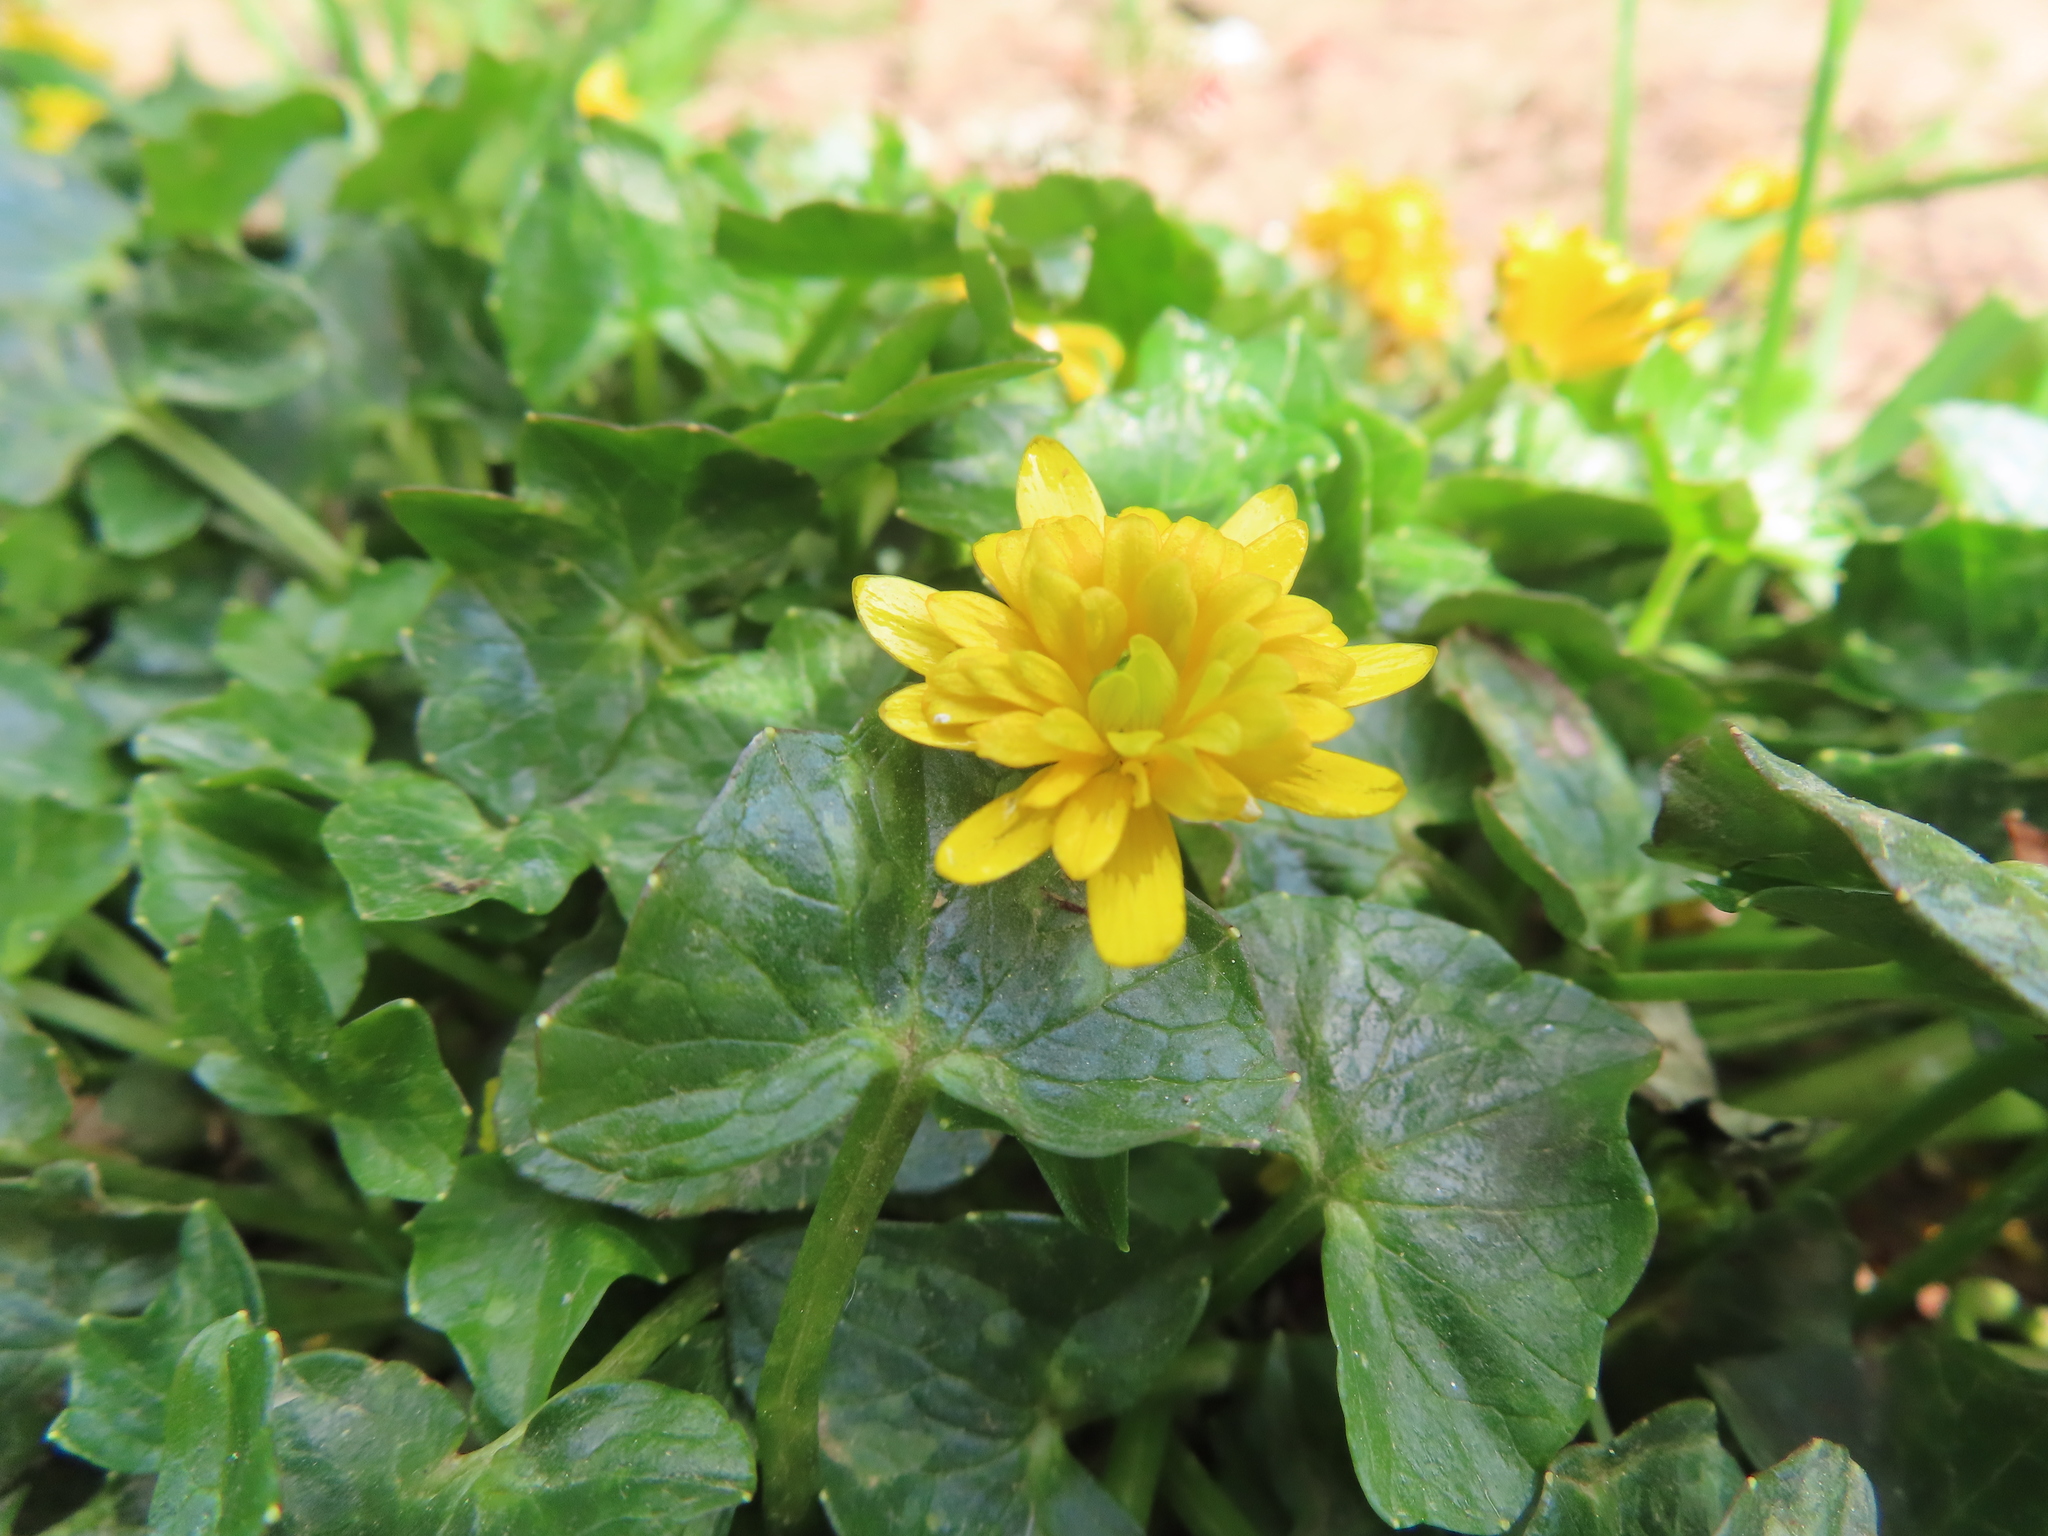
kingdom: Plantae
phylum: Tracheophyta
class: Magnoliopsida
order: Ranunculales
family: Ranunculaceae
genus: Ficaria
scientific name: Ficaria verna
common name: Lesser celandine
